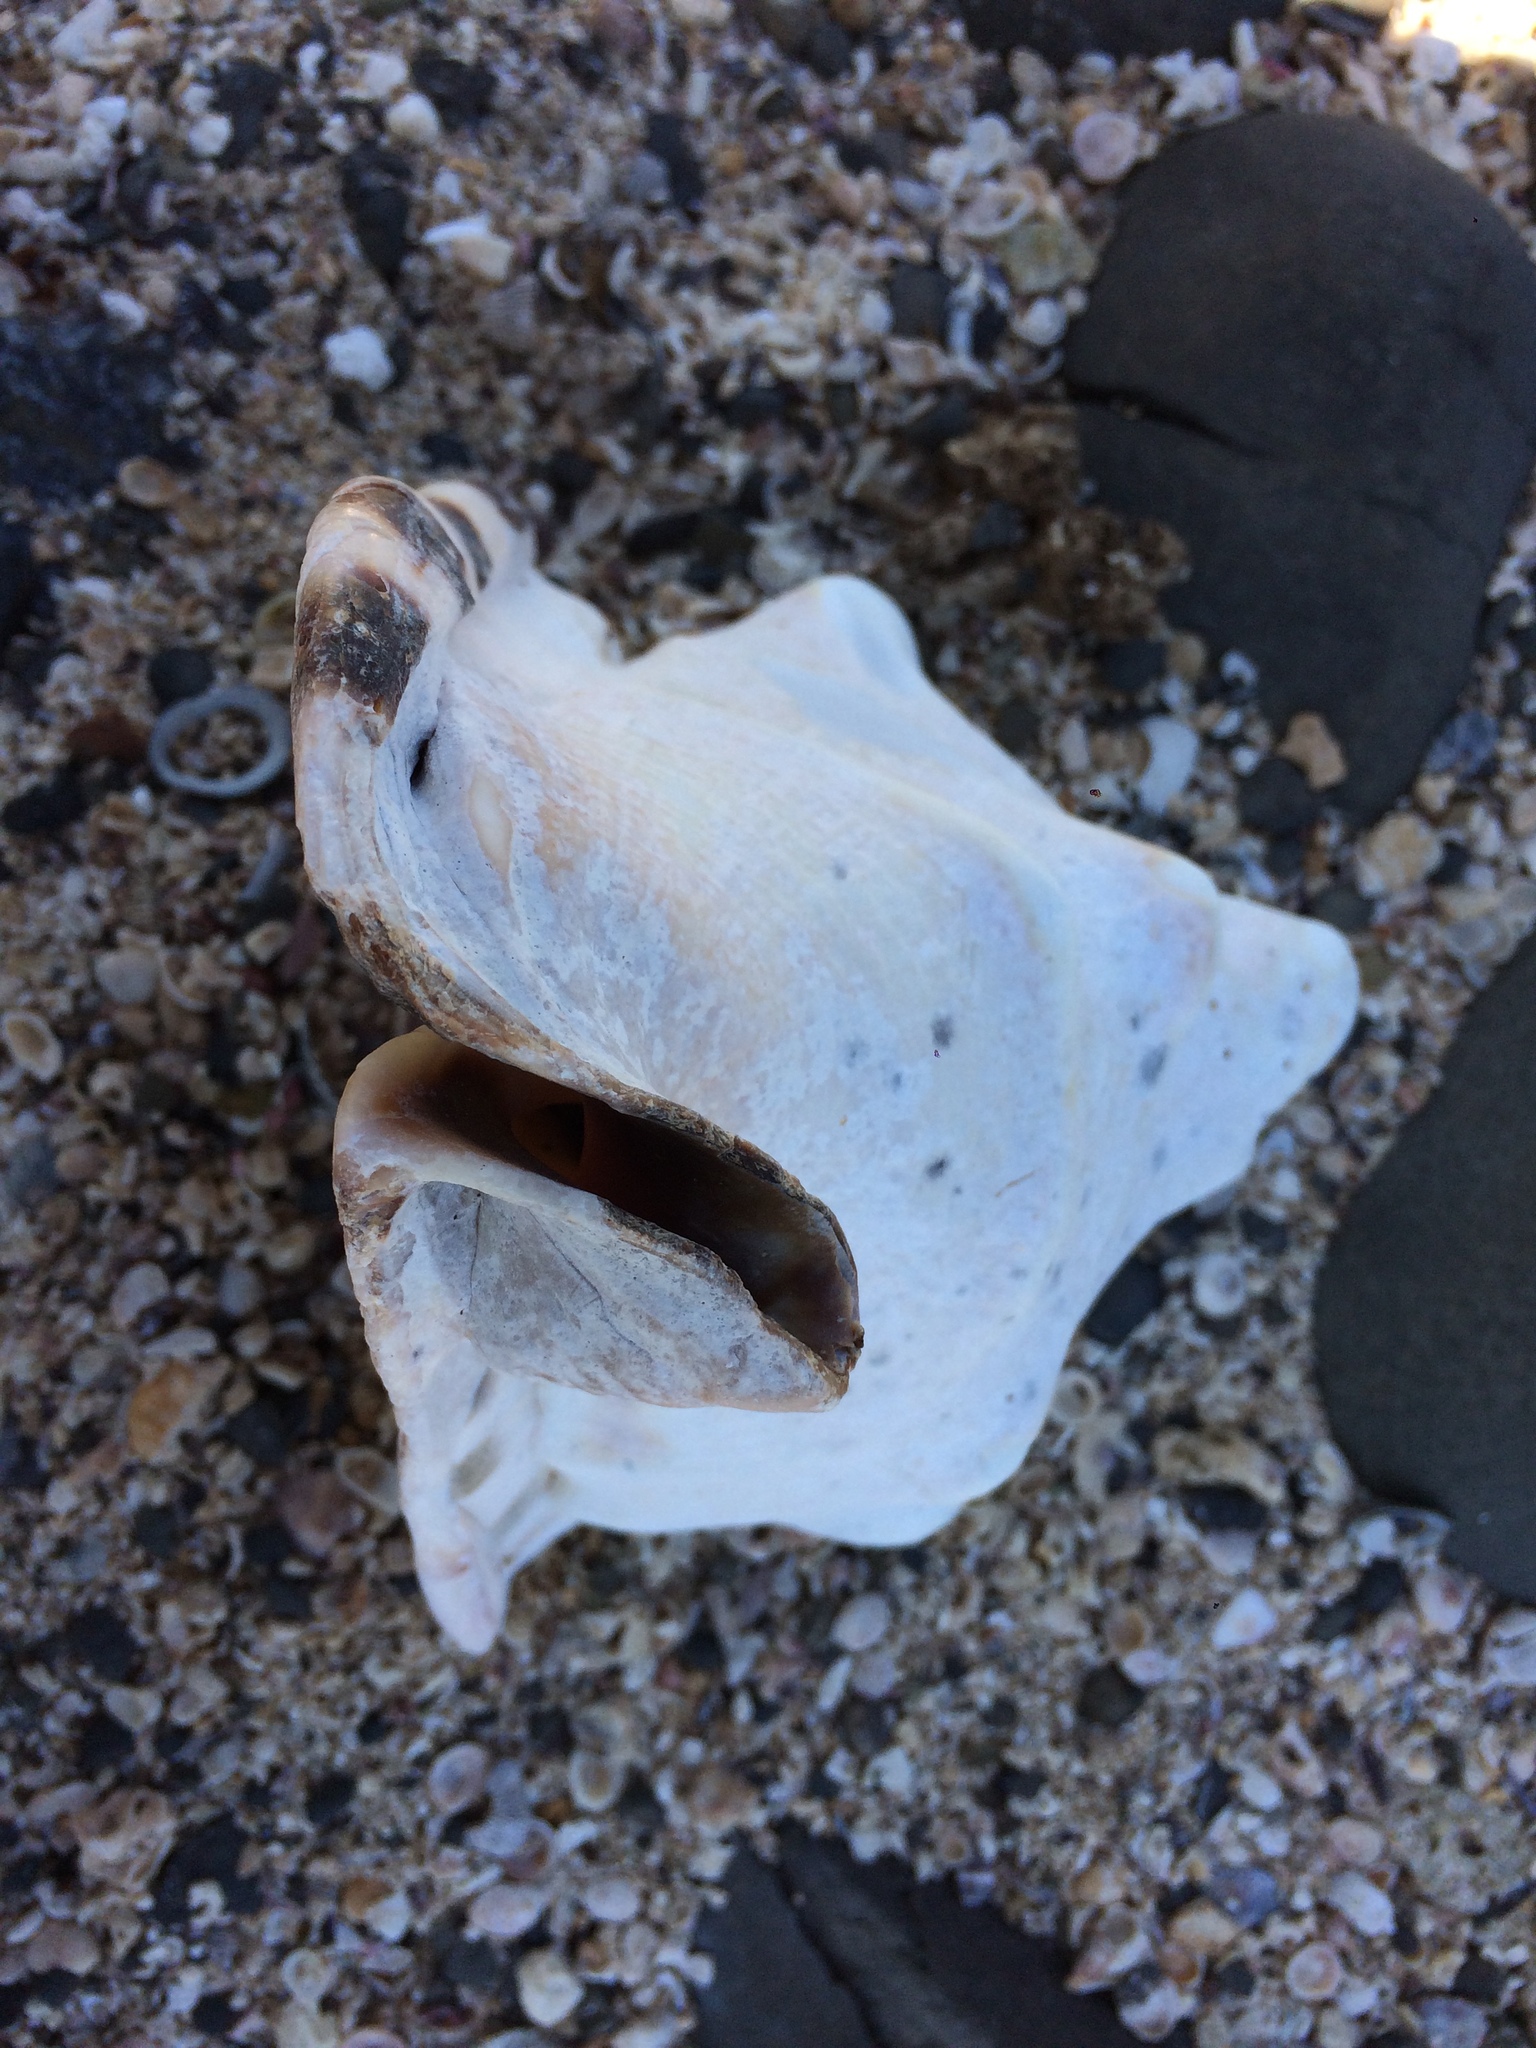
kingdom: Animalia
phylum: Mollusca
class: Gastropoda
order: Littorinimorpha
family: Cassidae
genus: Cassis
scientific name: Cassis tuberosa
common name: Caribbean helmet
